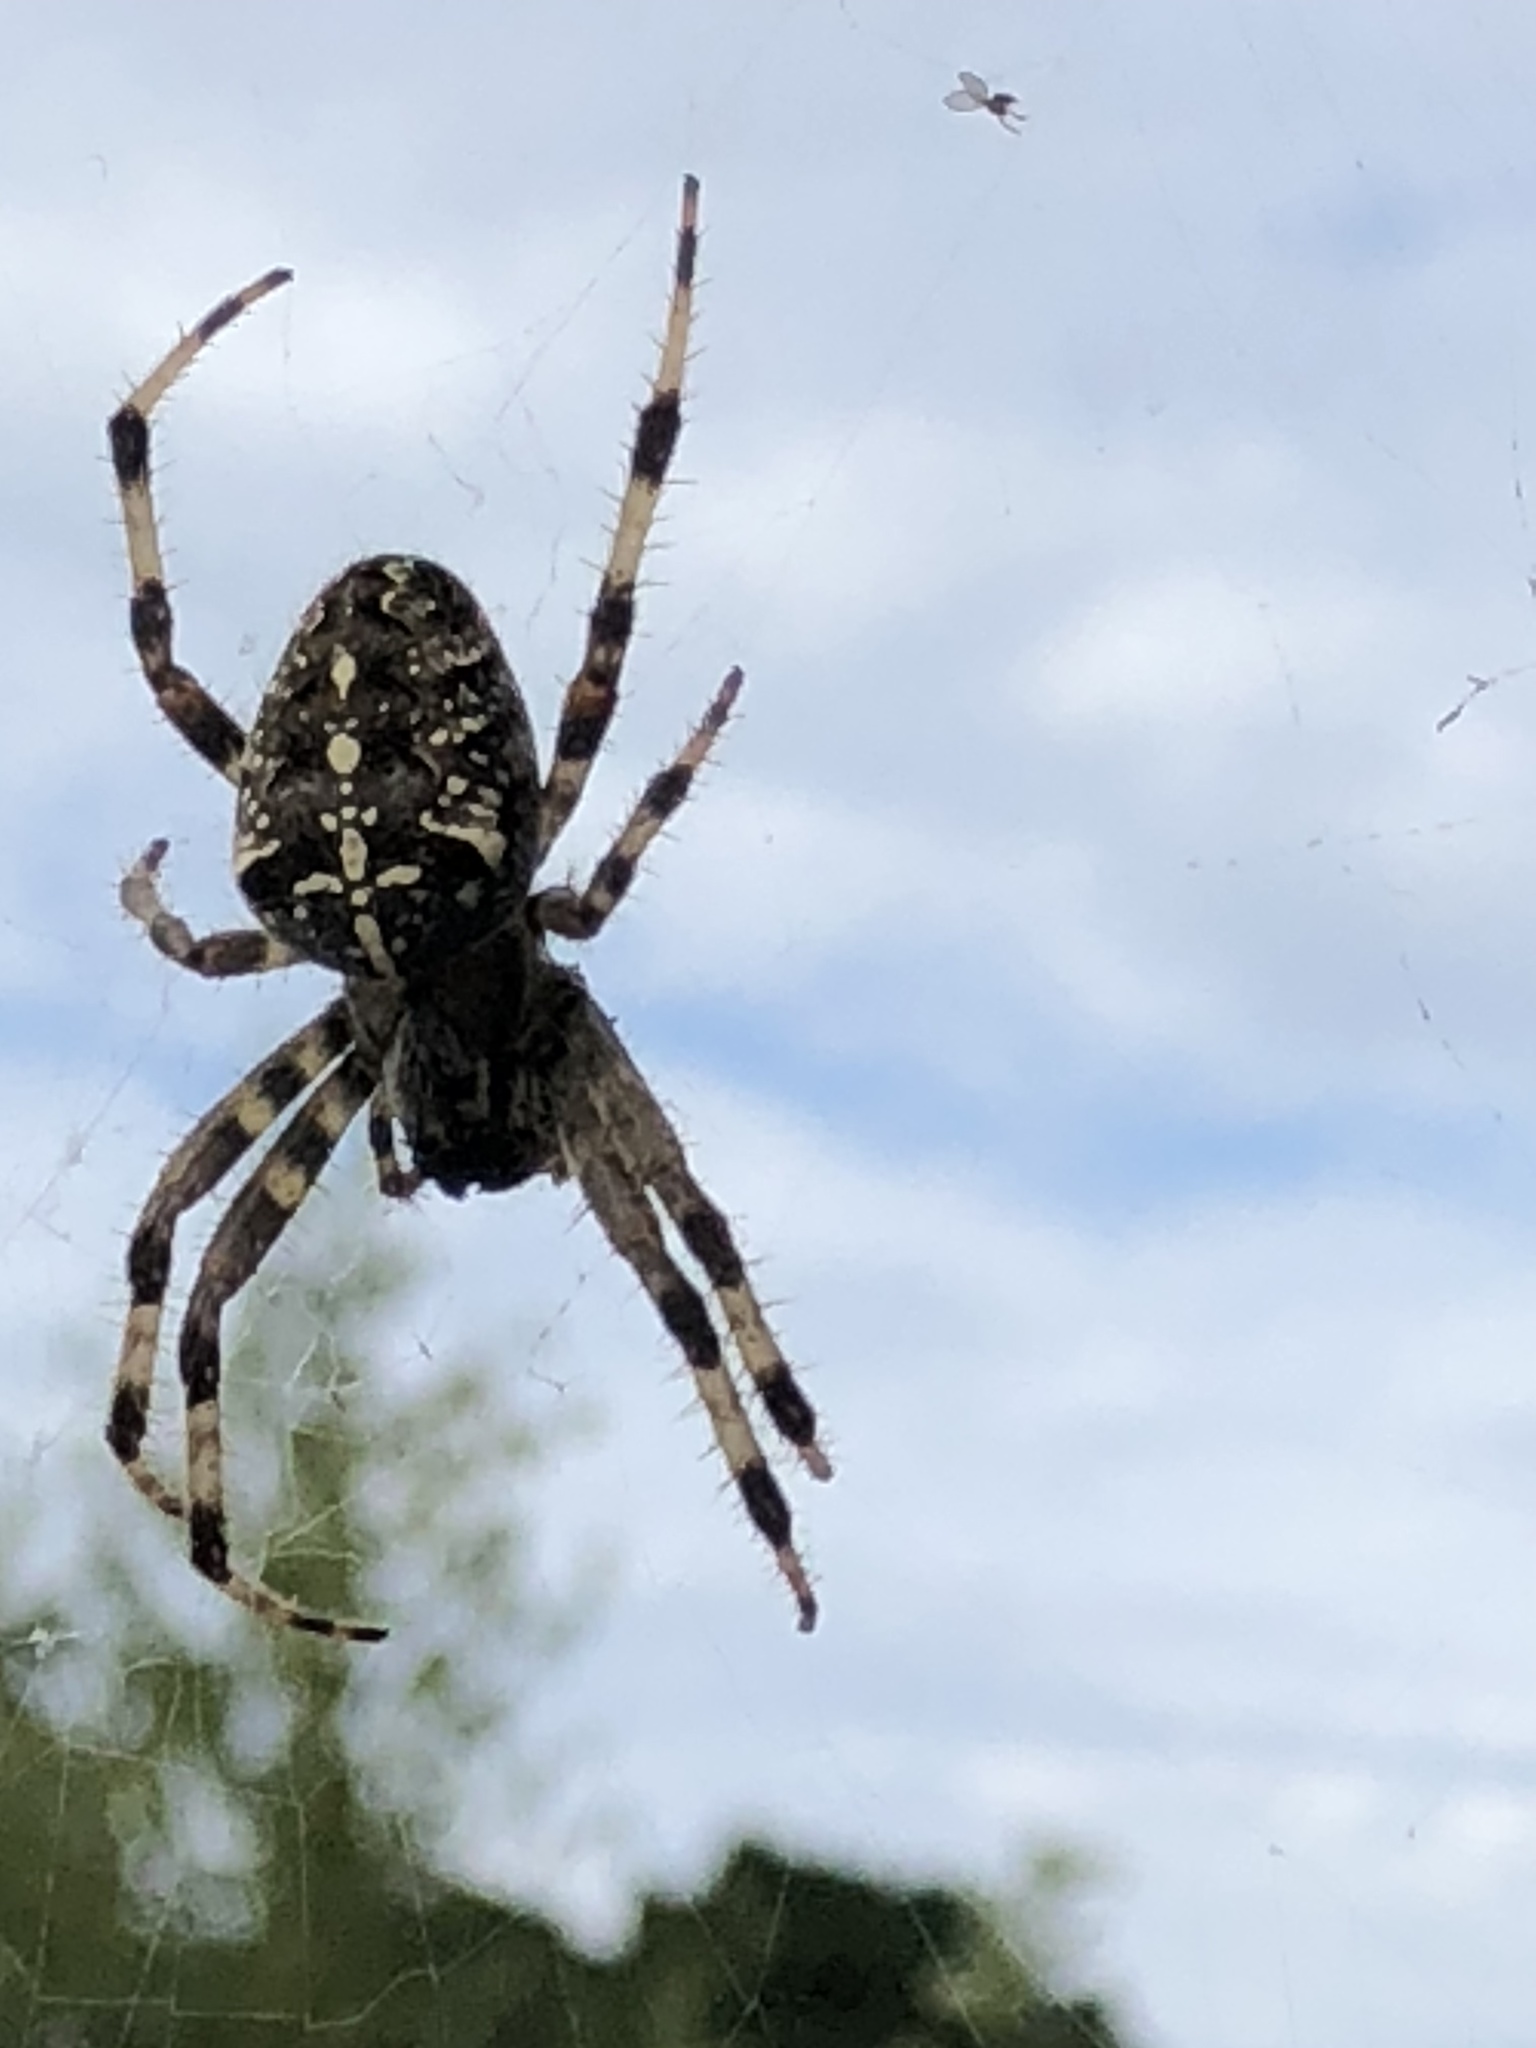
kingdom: Animalia
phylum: Arthropoda
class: Arachnida
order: Araneae
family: Araneidae
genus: Araneus
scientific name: Araneus diadematus
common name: Cross orbweaver
